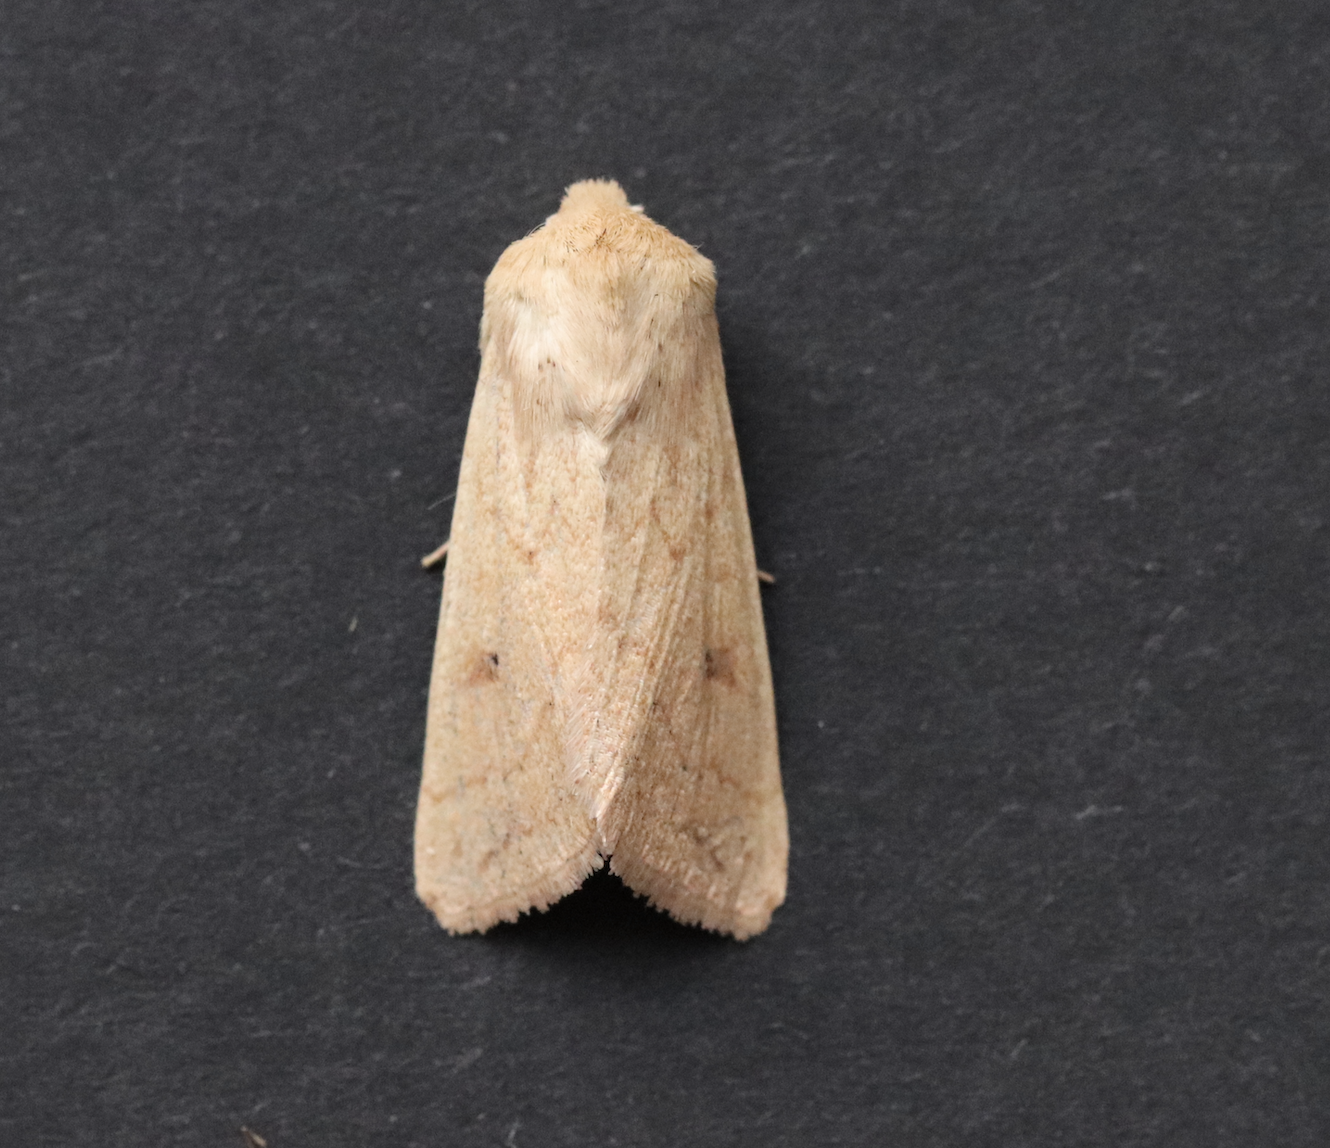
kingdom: Animalia
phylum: Arthropoda
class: Insecta
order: Lepidoptera
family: Noctuidae
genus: Mythimna
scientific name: Mythimna vitellina
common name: Delicate
